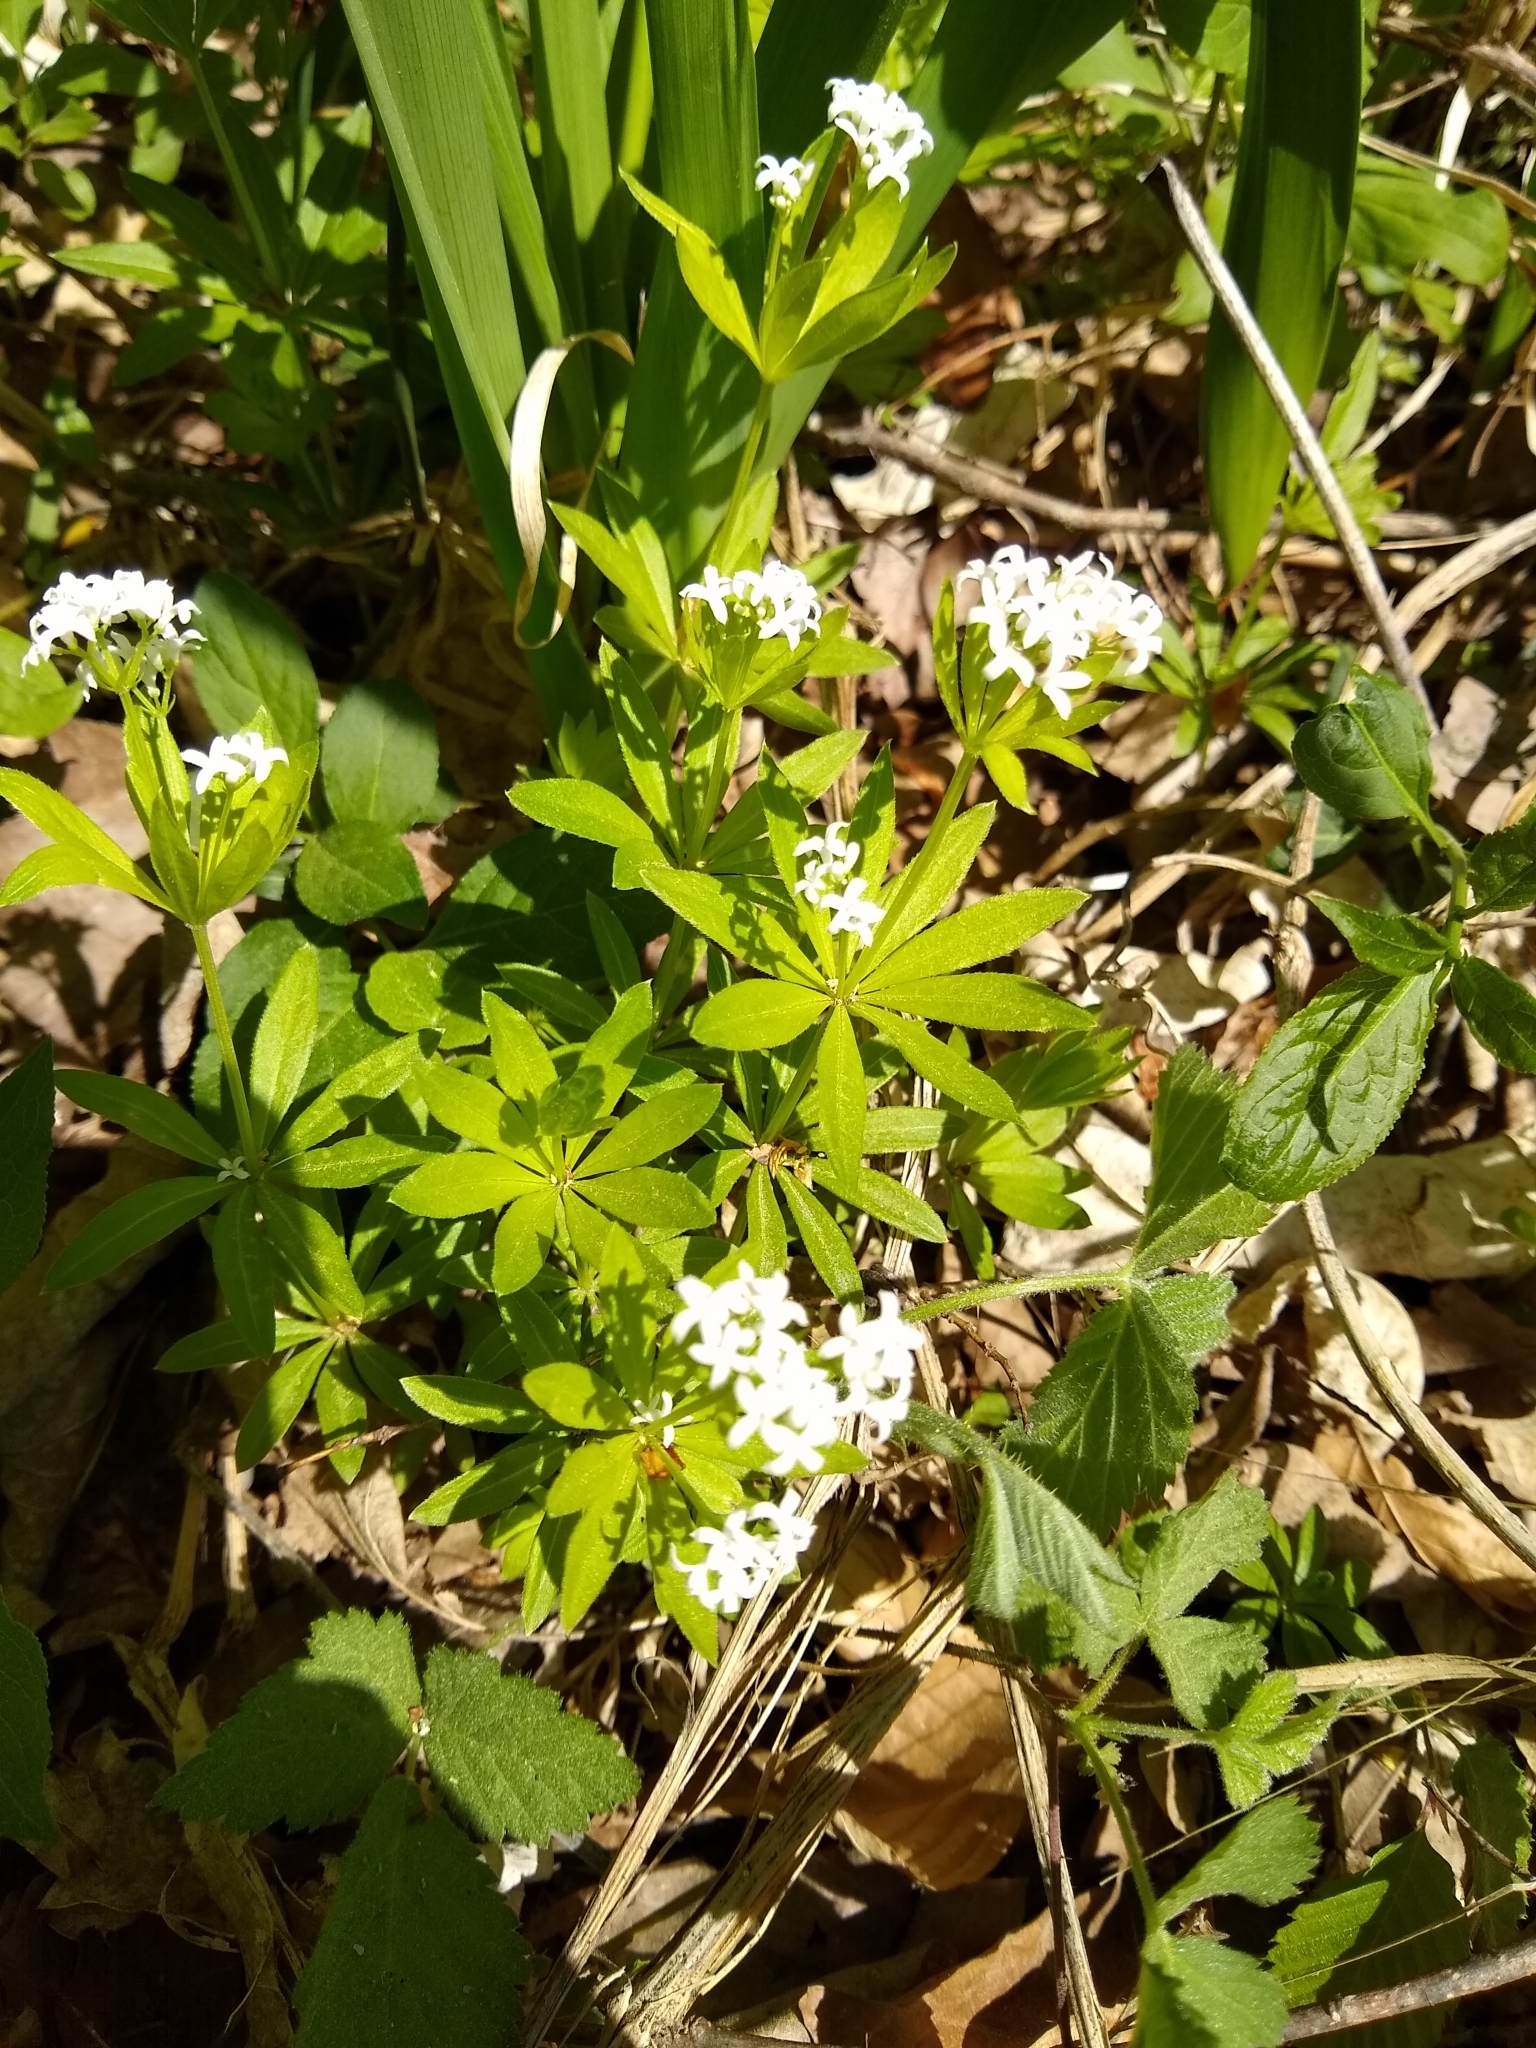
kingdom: Plantae
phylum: Tracheophyta
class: Magnoliopsida
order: Gentianales
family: Rubiaceae
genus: Galium
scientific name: Galium odoratum
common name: Sweet woodruff
